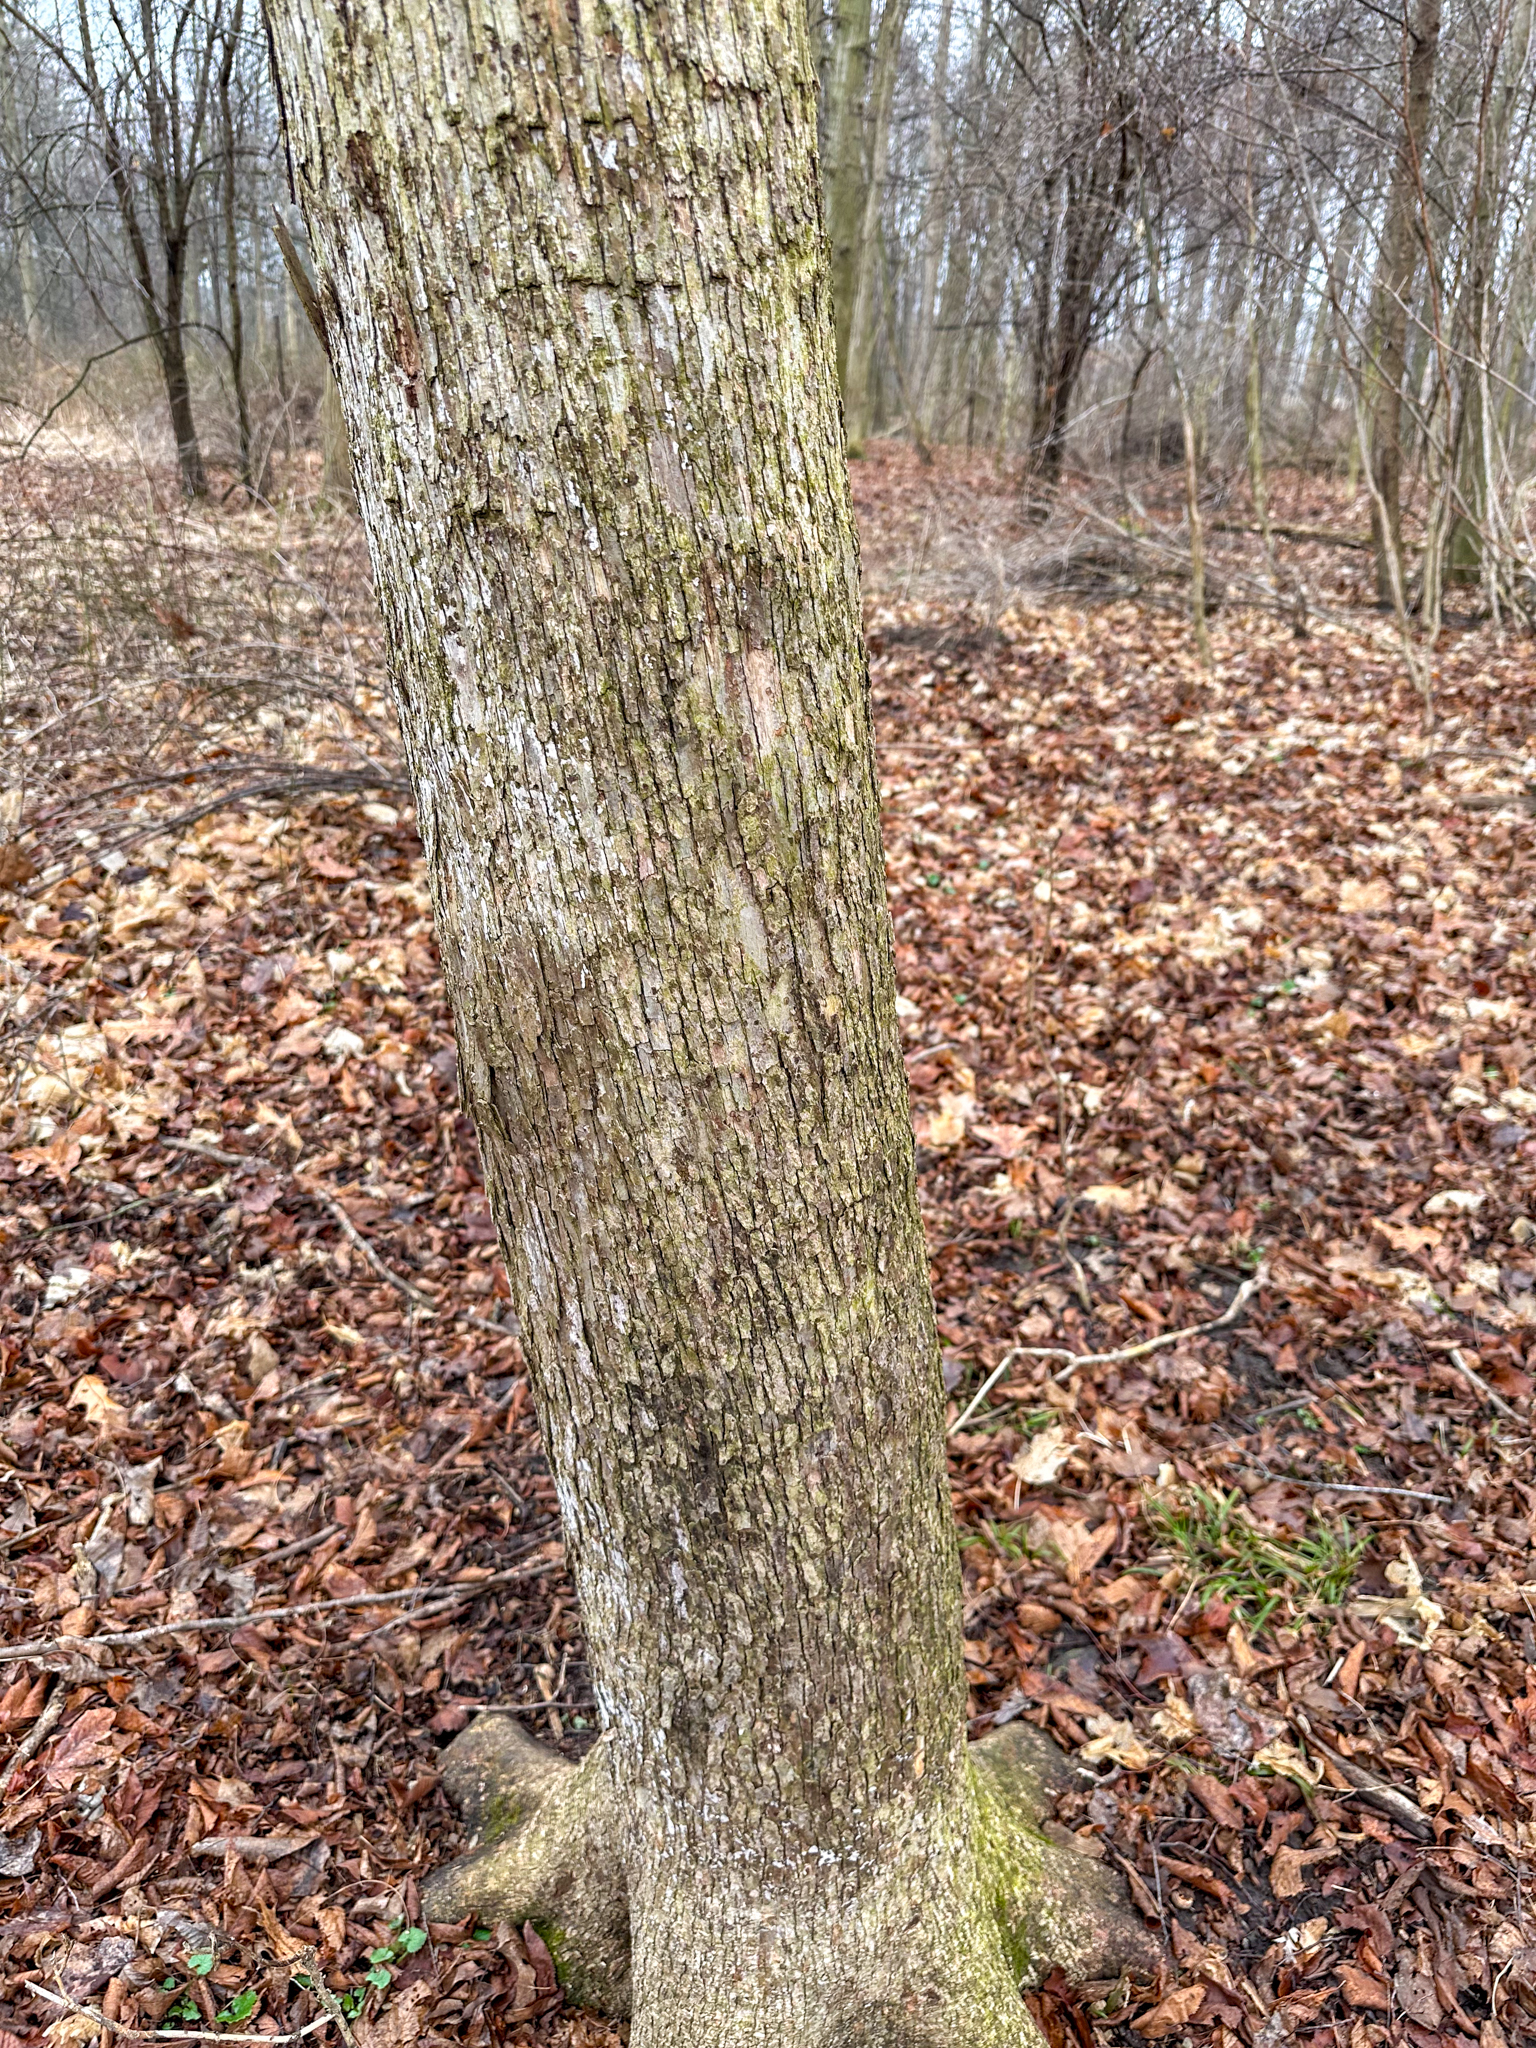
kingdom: Plantae
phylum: Tracheophyta
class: Magnoliopsida
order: Fagales
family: Betulaceae
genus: Ostrya
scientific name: Ostrya virginiana
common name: Ironwood
